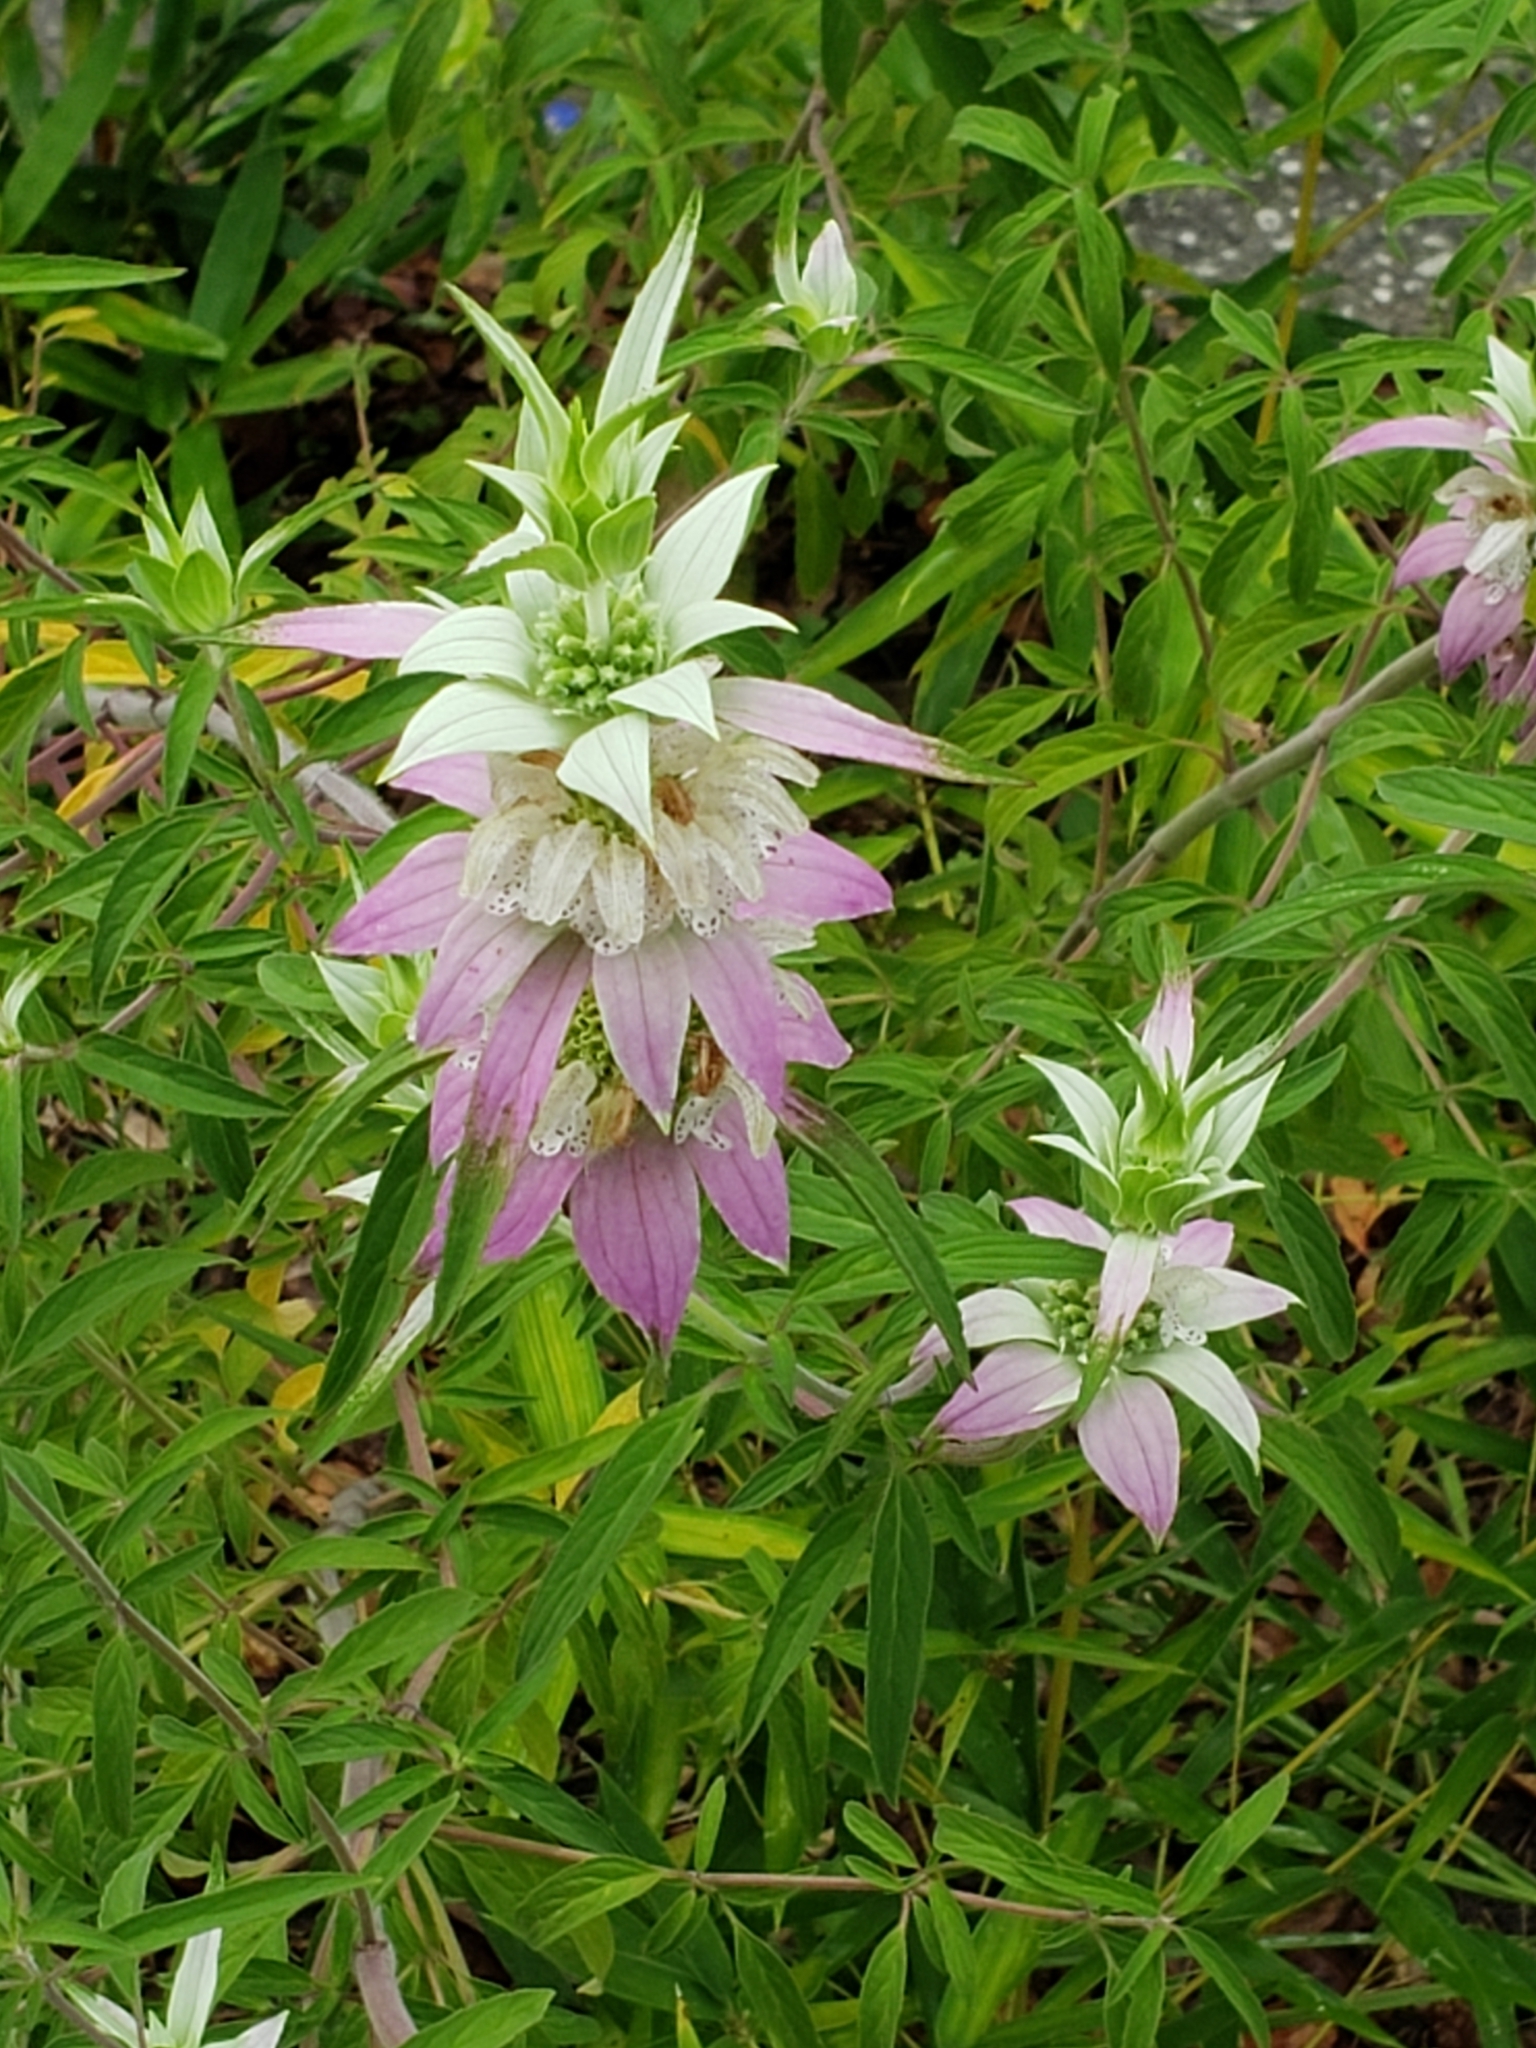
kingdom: Plantae
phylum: Tracheophyta
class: Magnoliopsida
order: Lamiales
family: Lamiaceae
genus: Monarda
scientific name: Monarda punctata
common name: Dotted monarda
